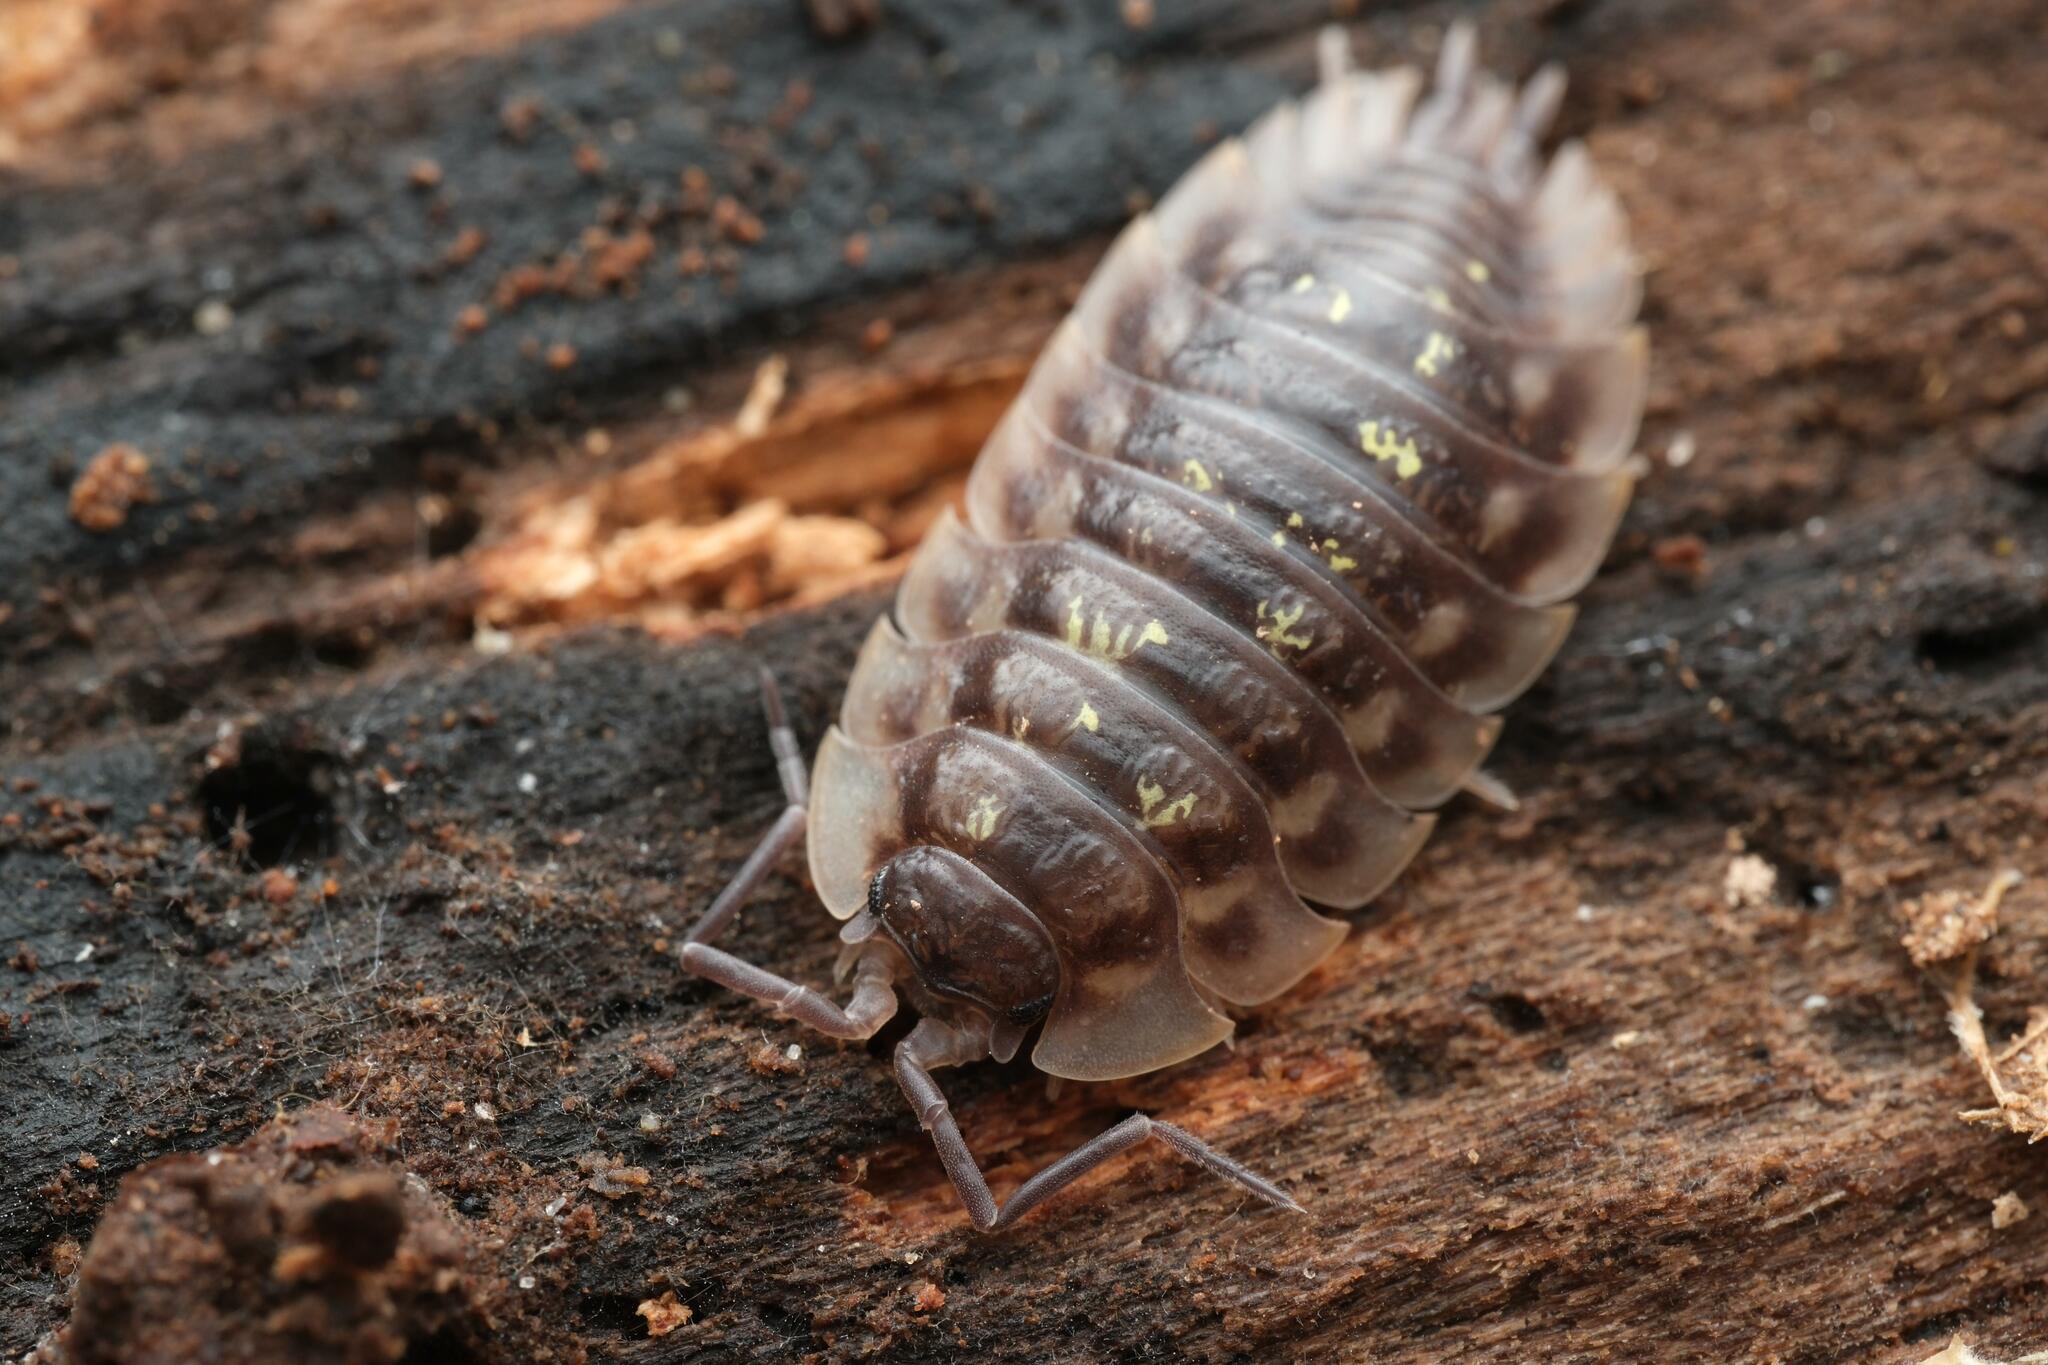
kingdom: Animalia
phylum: Arthropoda
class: Malacostraca
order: Isopoda
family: Oniscidae
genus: Oniscus
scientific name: Oniscus asellus
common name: Common shiny woodlouse
